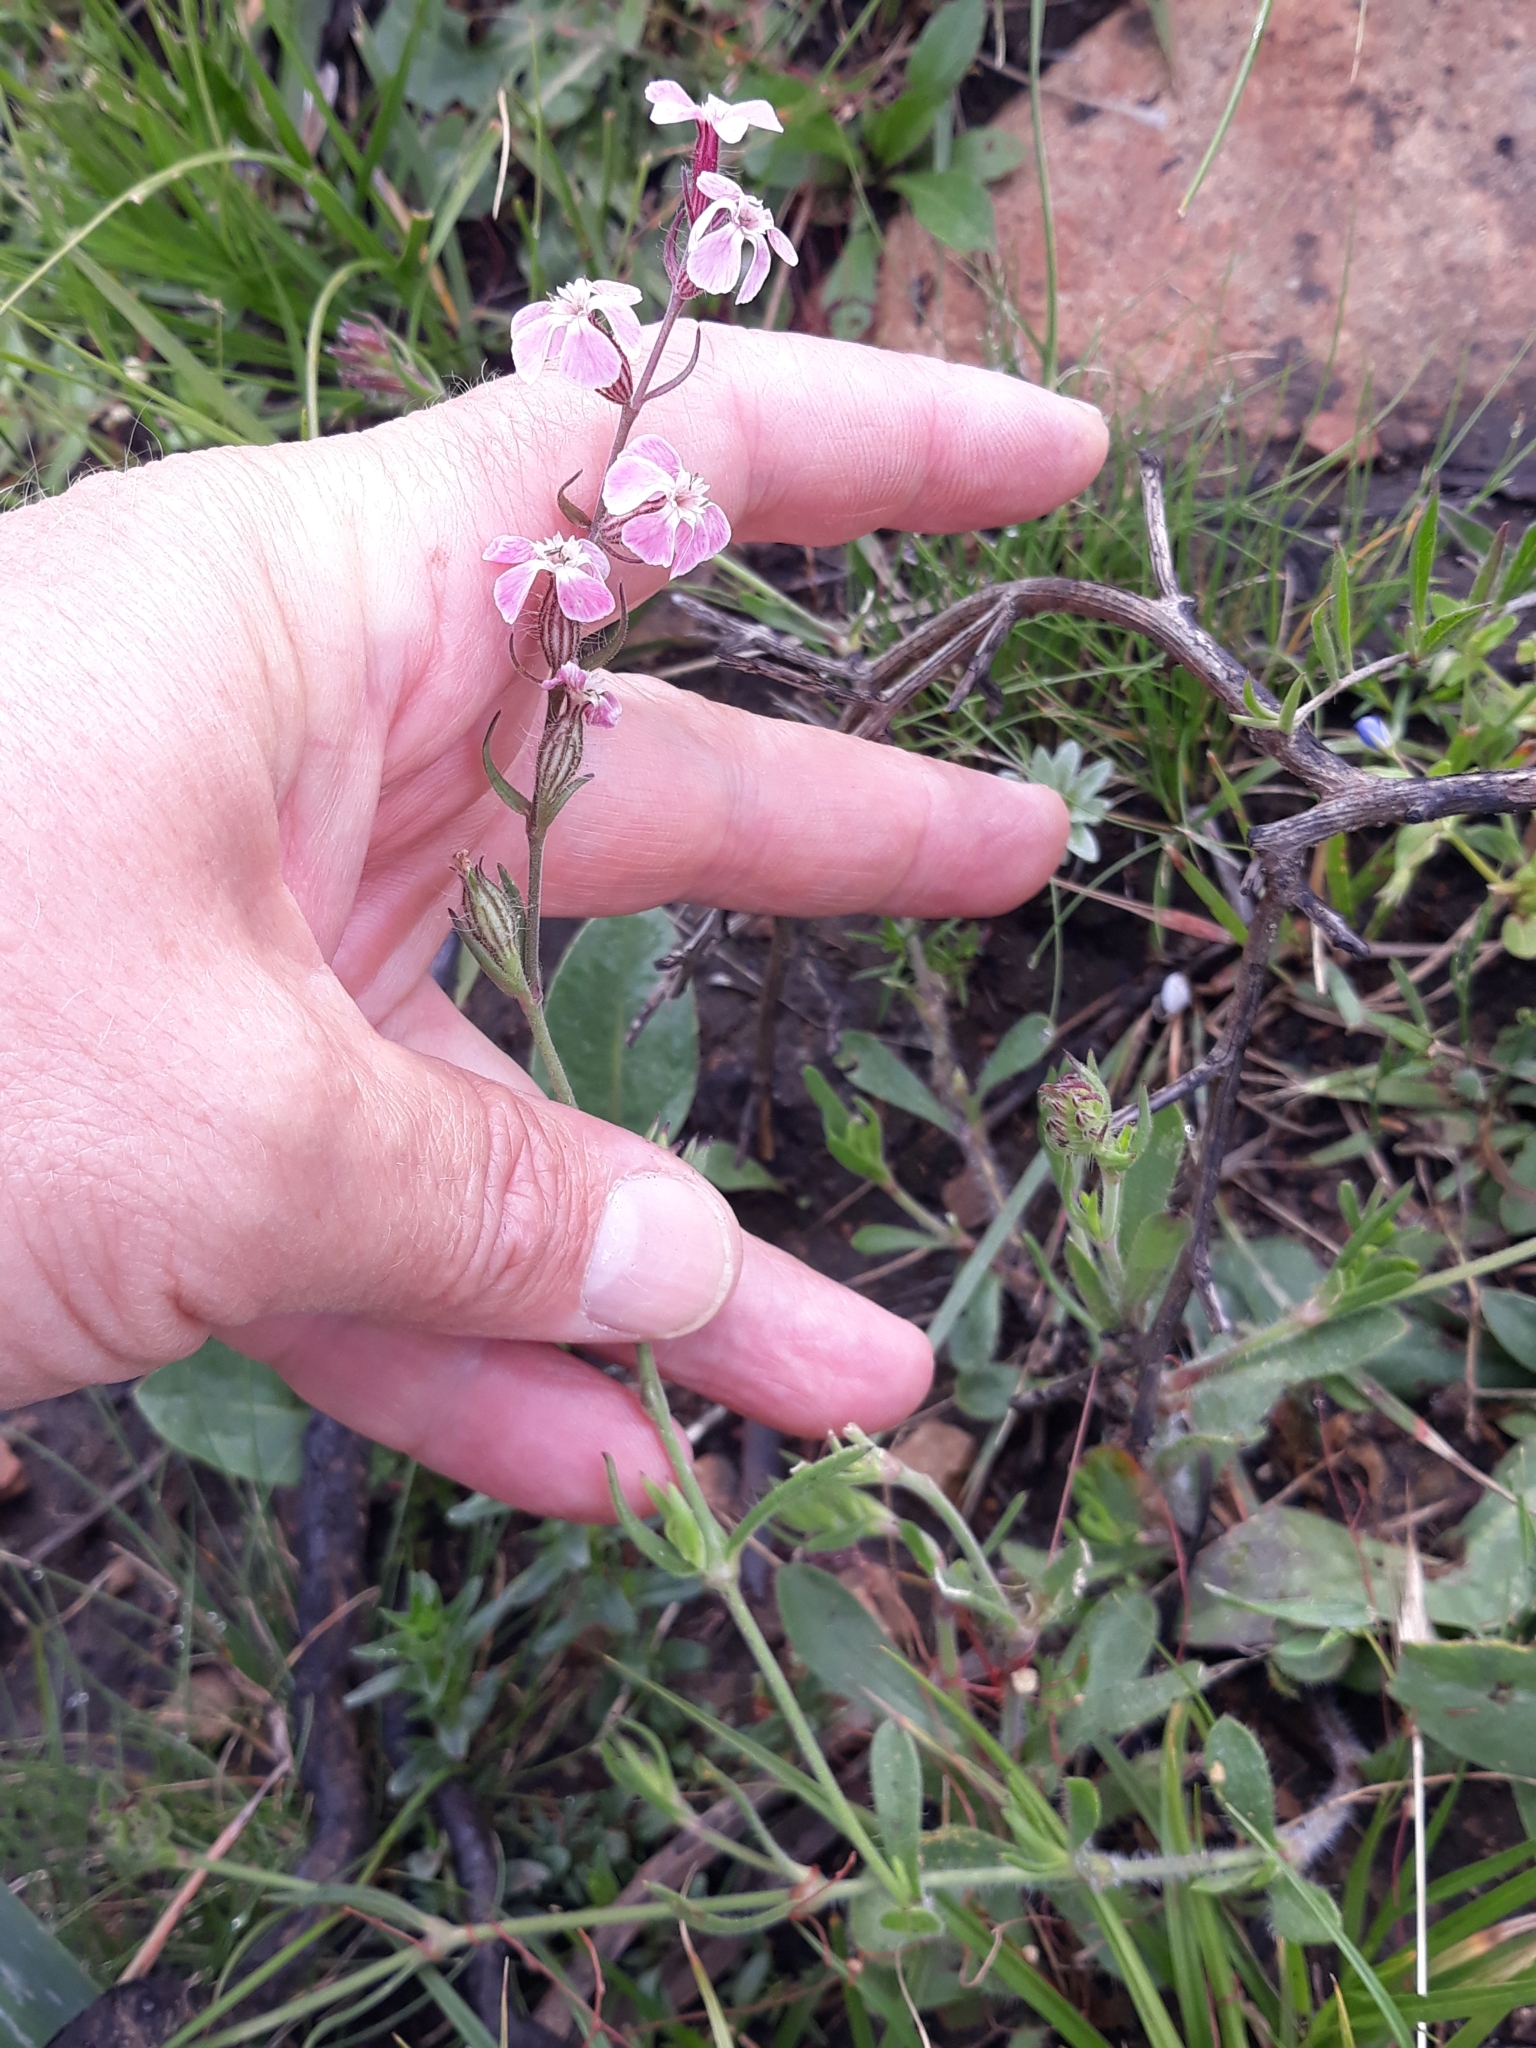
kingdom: Plantae
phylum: Tracheophyta
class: Magnoliopsida
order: Caryophyllales
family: Caryophyllaceae
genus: Silene
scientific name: Silene gallica
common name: Small-flowered catchfly
